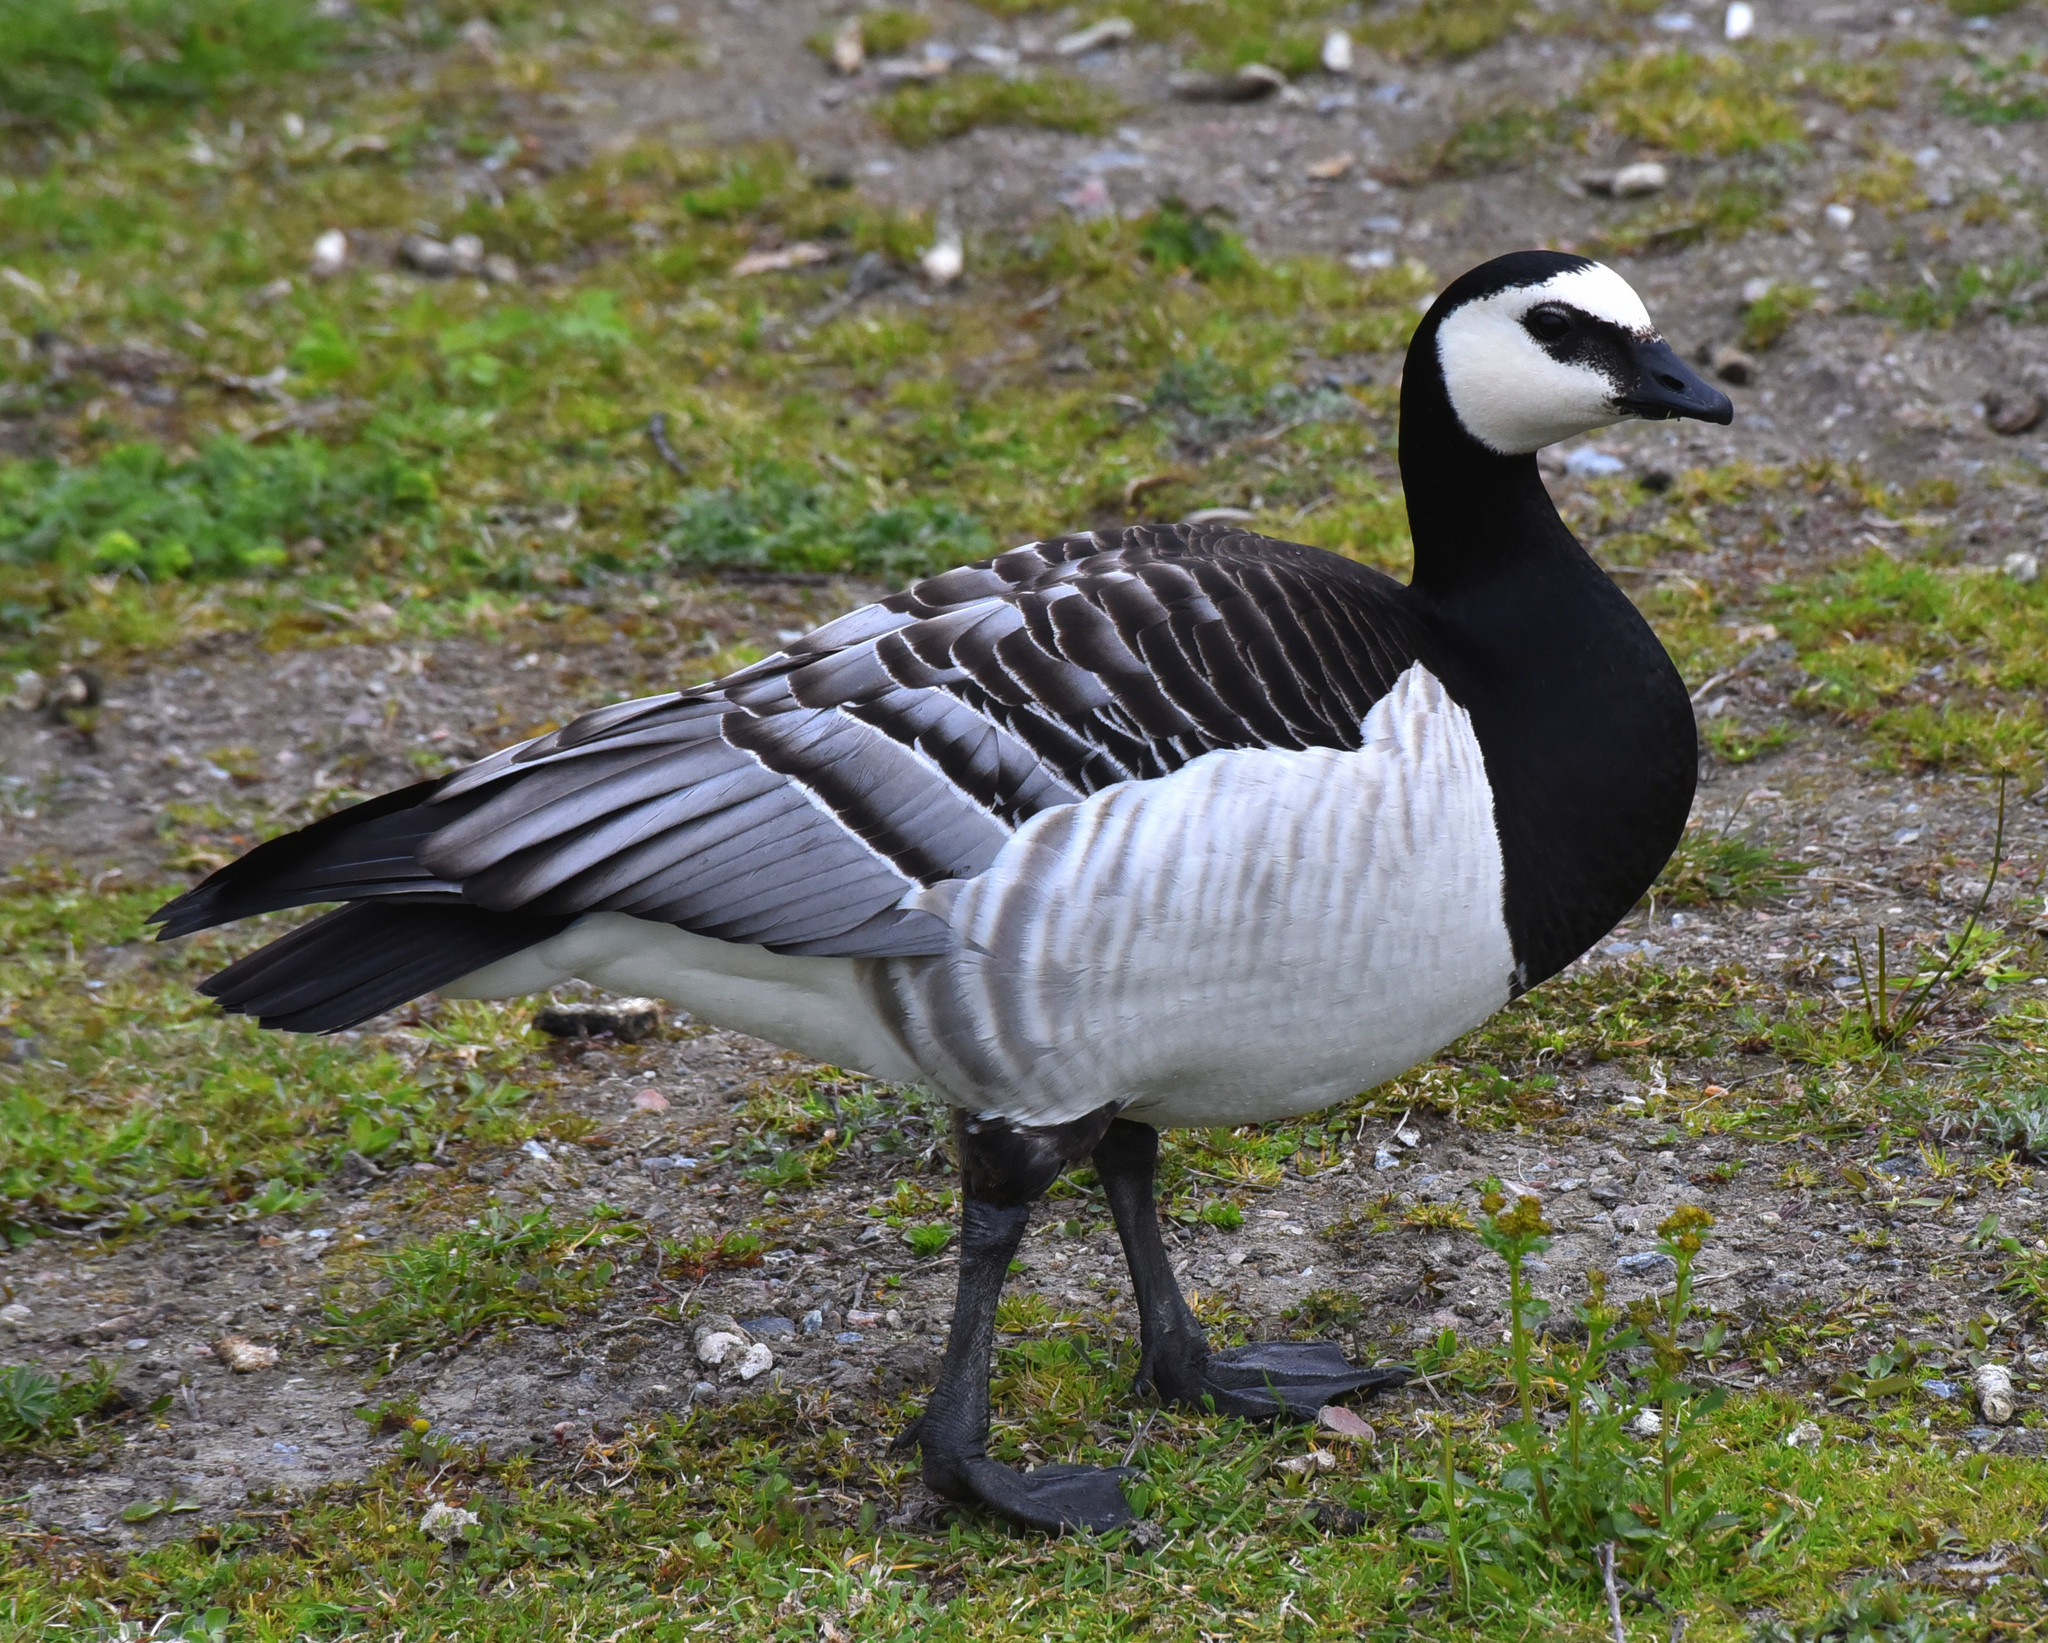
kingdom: Animalia
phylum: Chordata
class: Aves
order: Anseriformes
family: Anatidae
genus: Branta
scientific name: Branta leucopsis
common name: Barnacle goose
